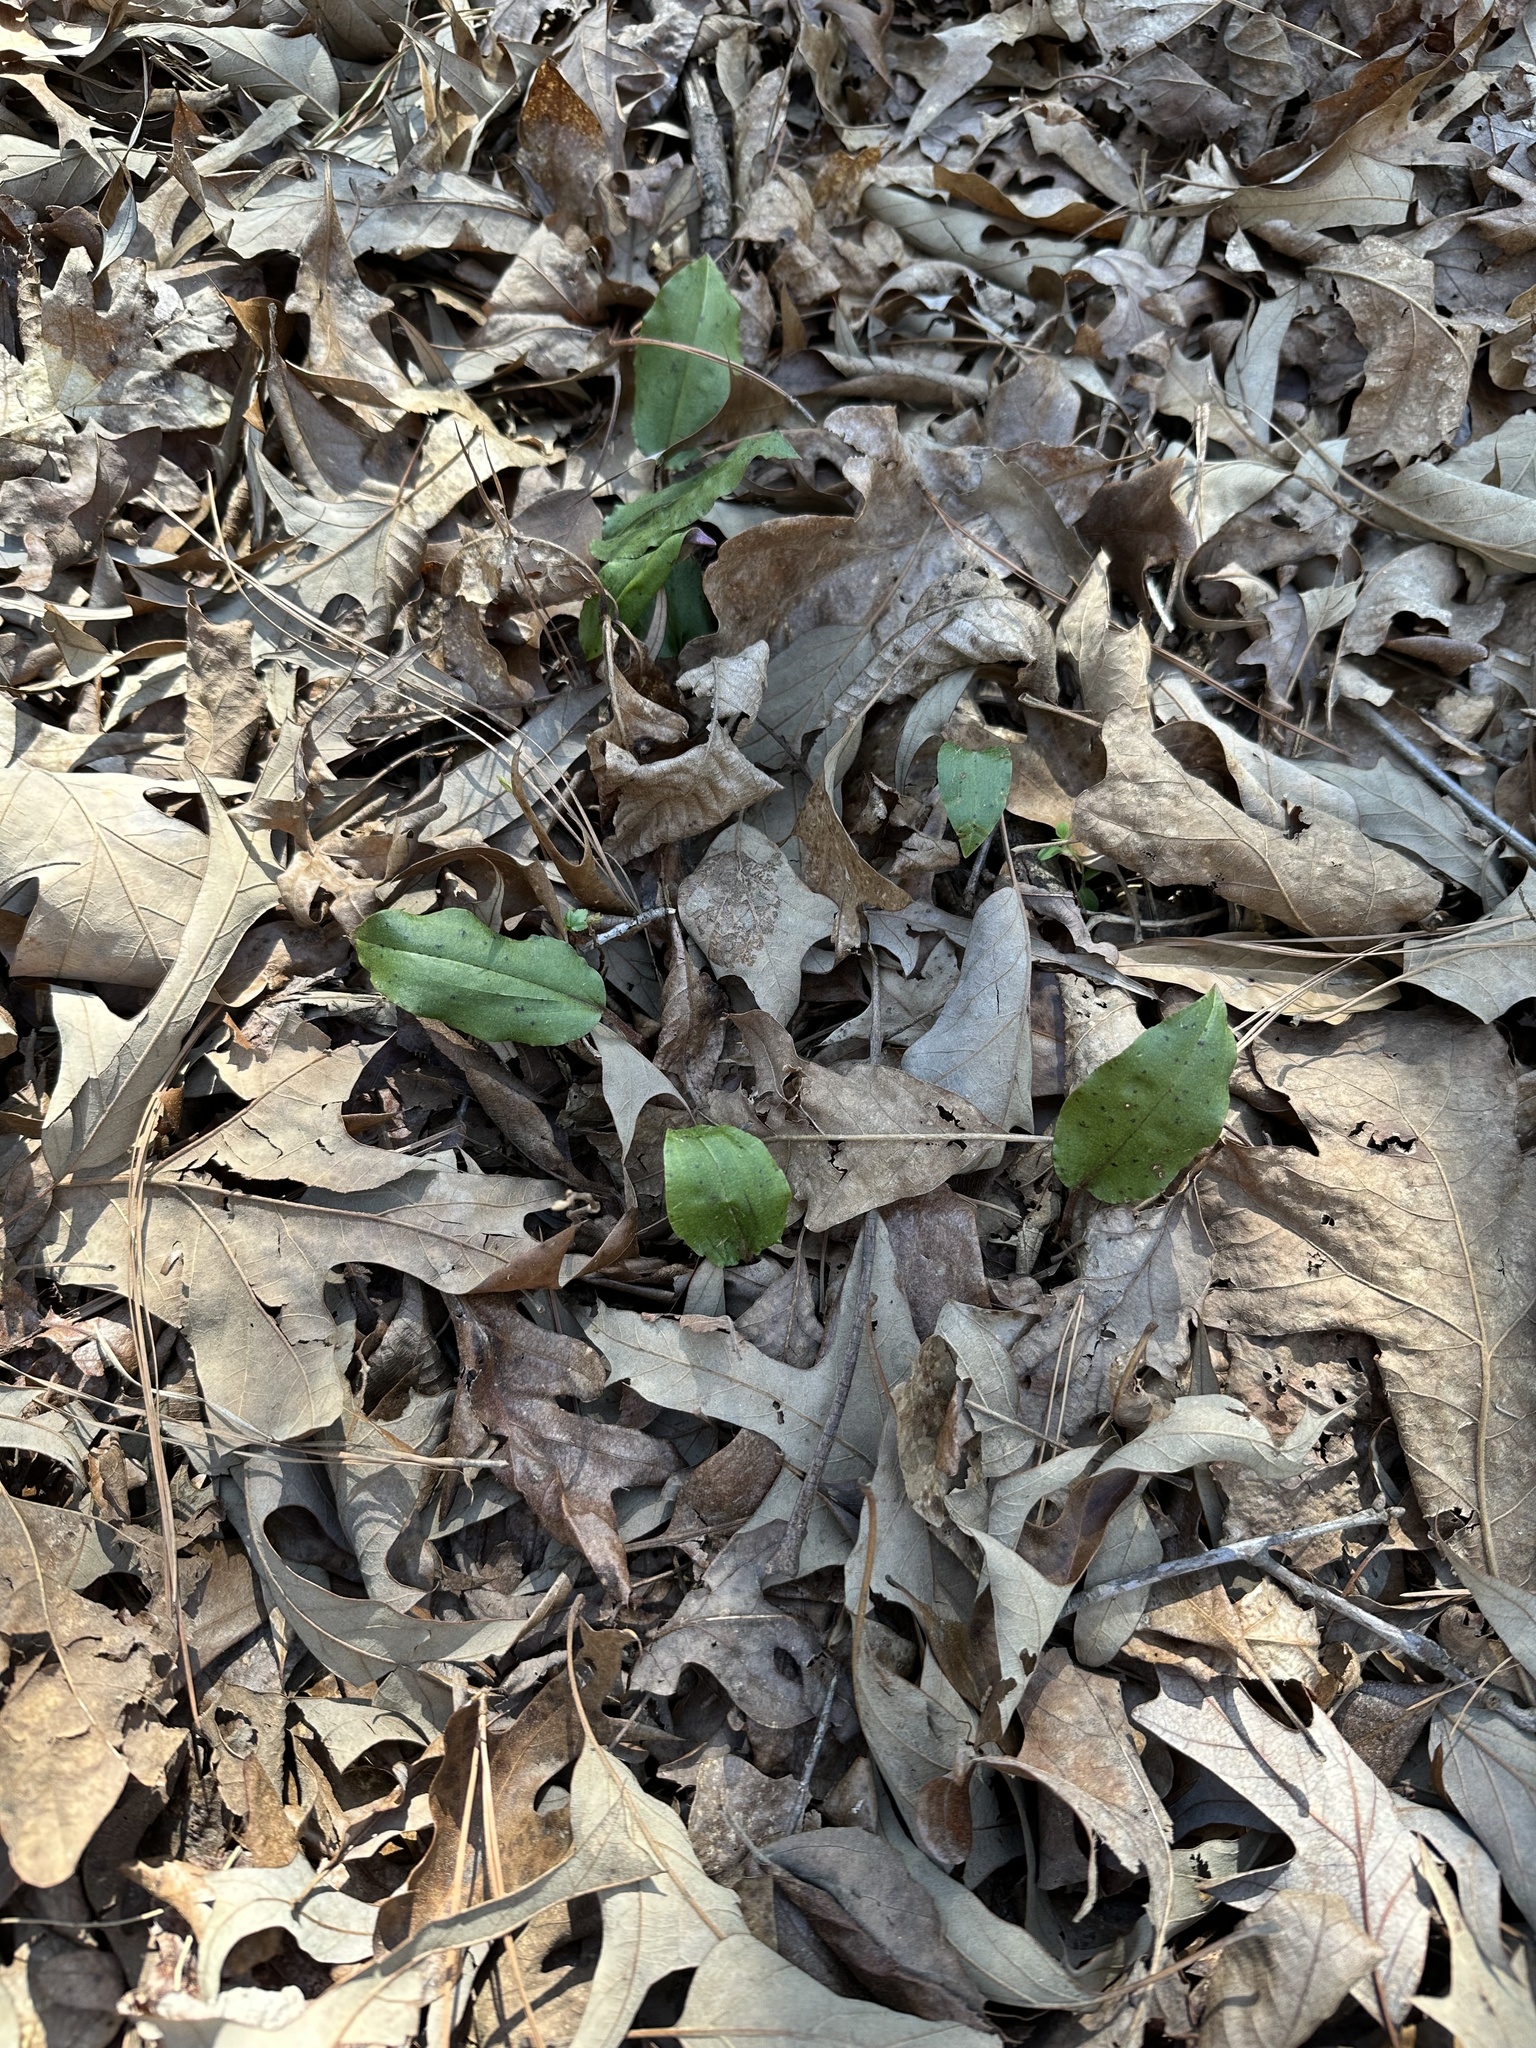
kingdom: Plantae
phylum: Tracheophyta
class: Liliopsida
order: Asparagales
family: Orchidaceae
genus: Tipularia
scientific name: Tipularia discolor
